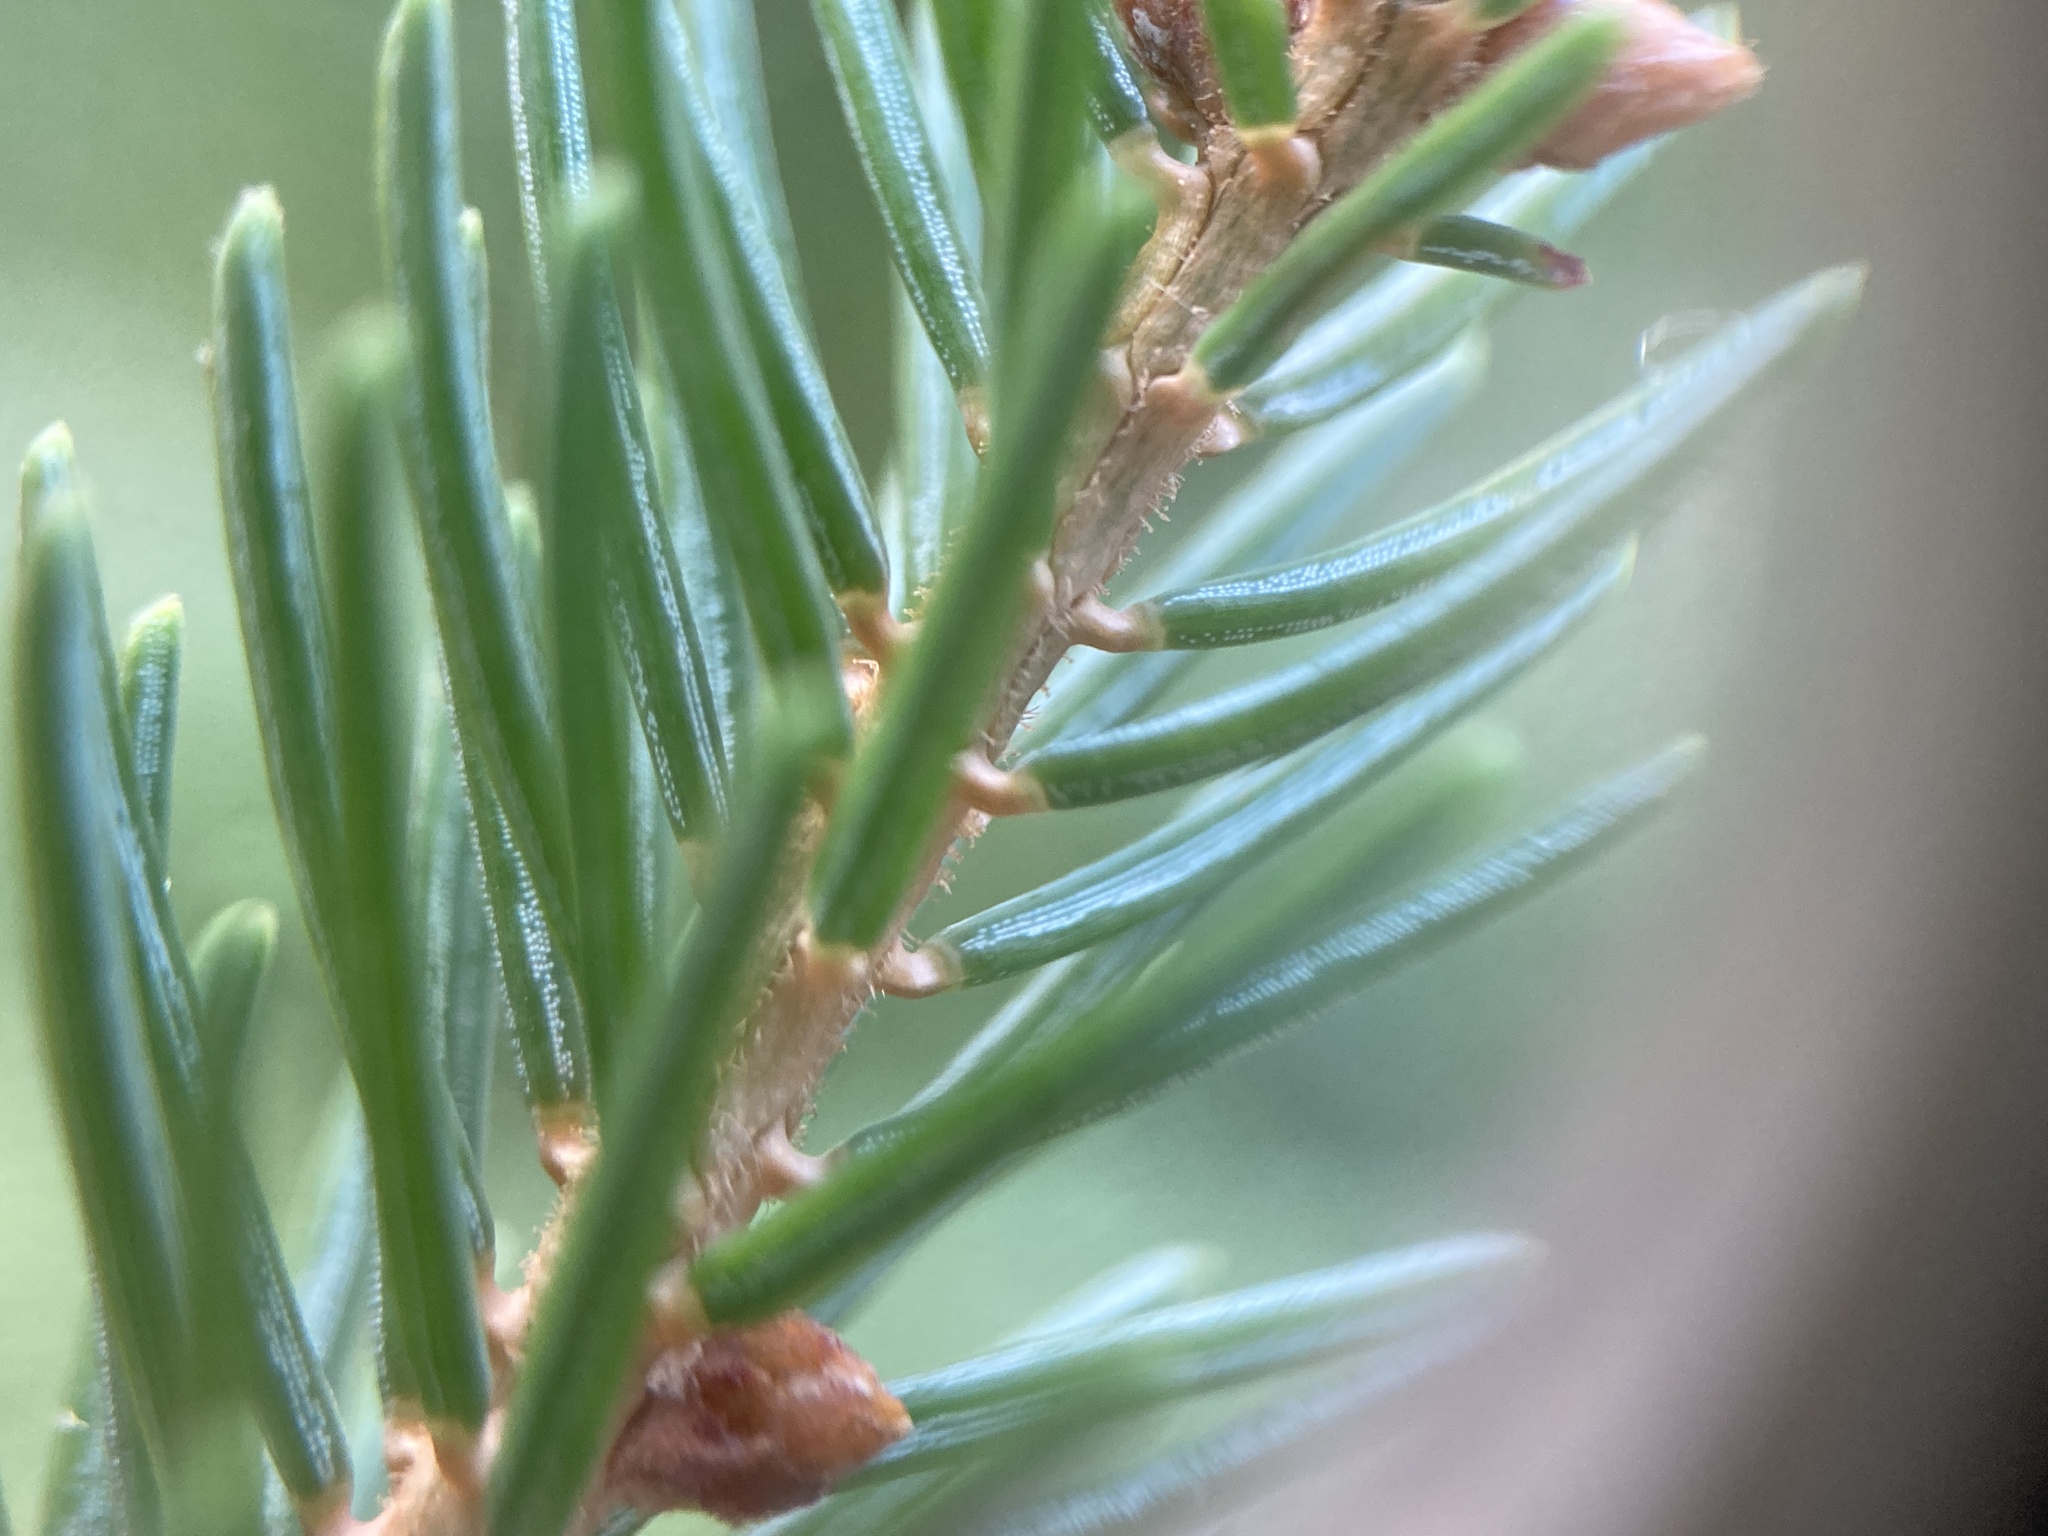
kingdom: Plantae
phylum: Tracheophyta
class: Pinopsida
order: Pinales
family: Pinaceae
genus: Picea
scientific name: Picea mariana
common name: Black spruce
